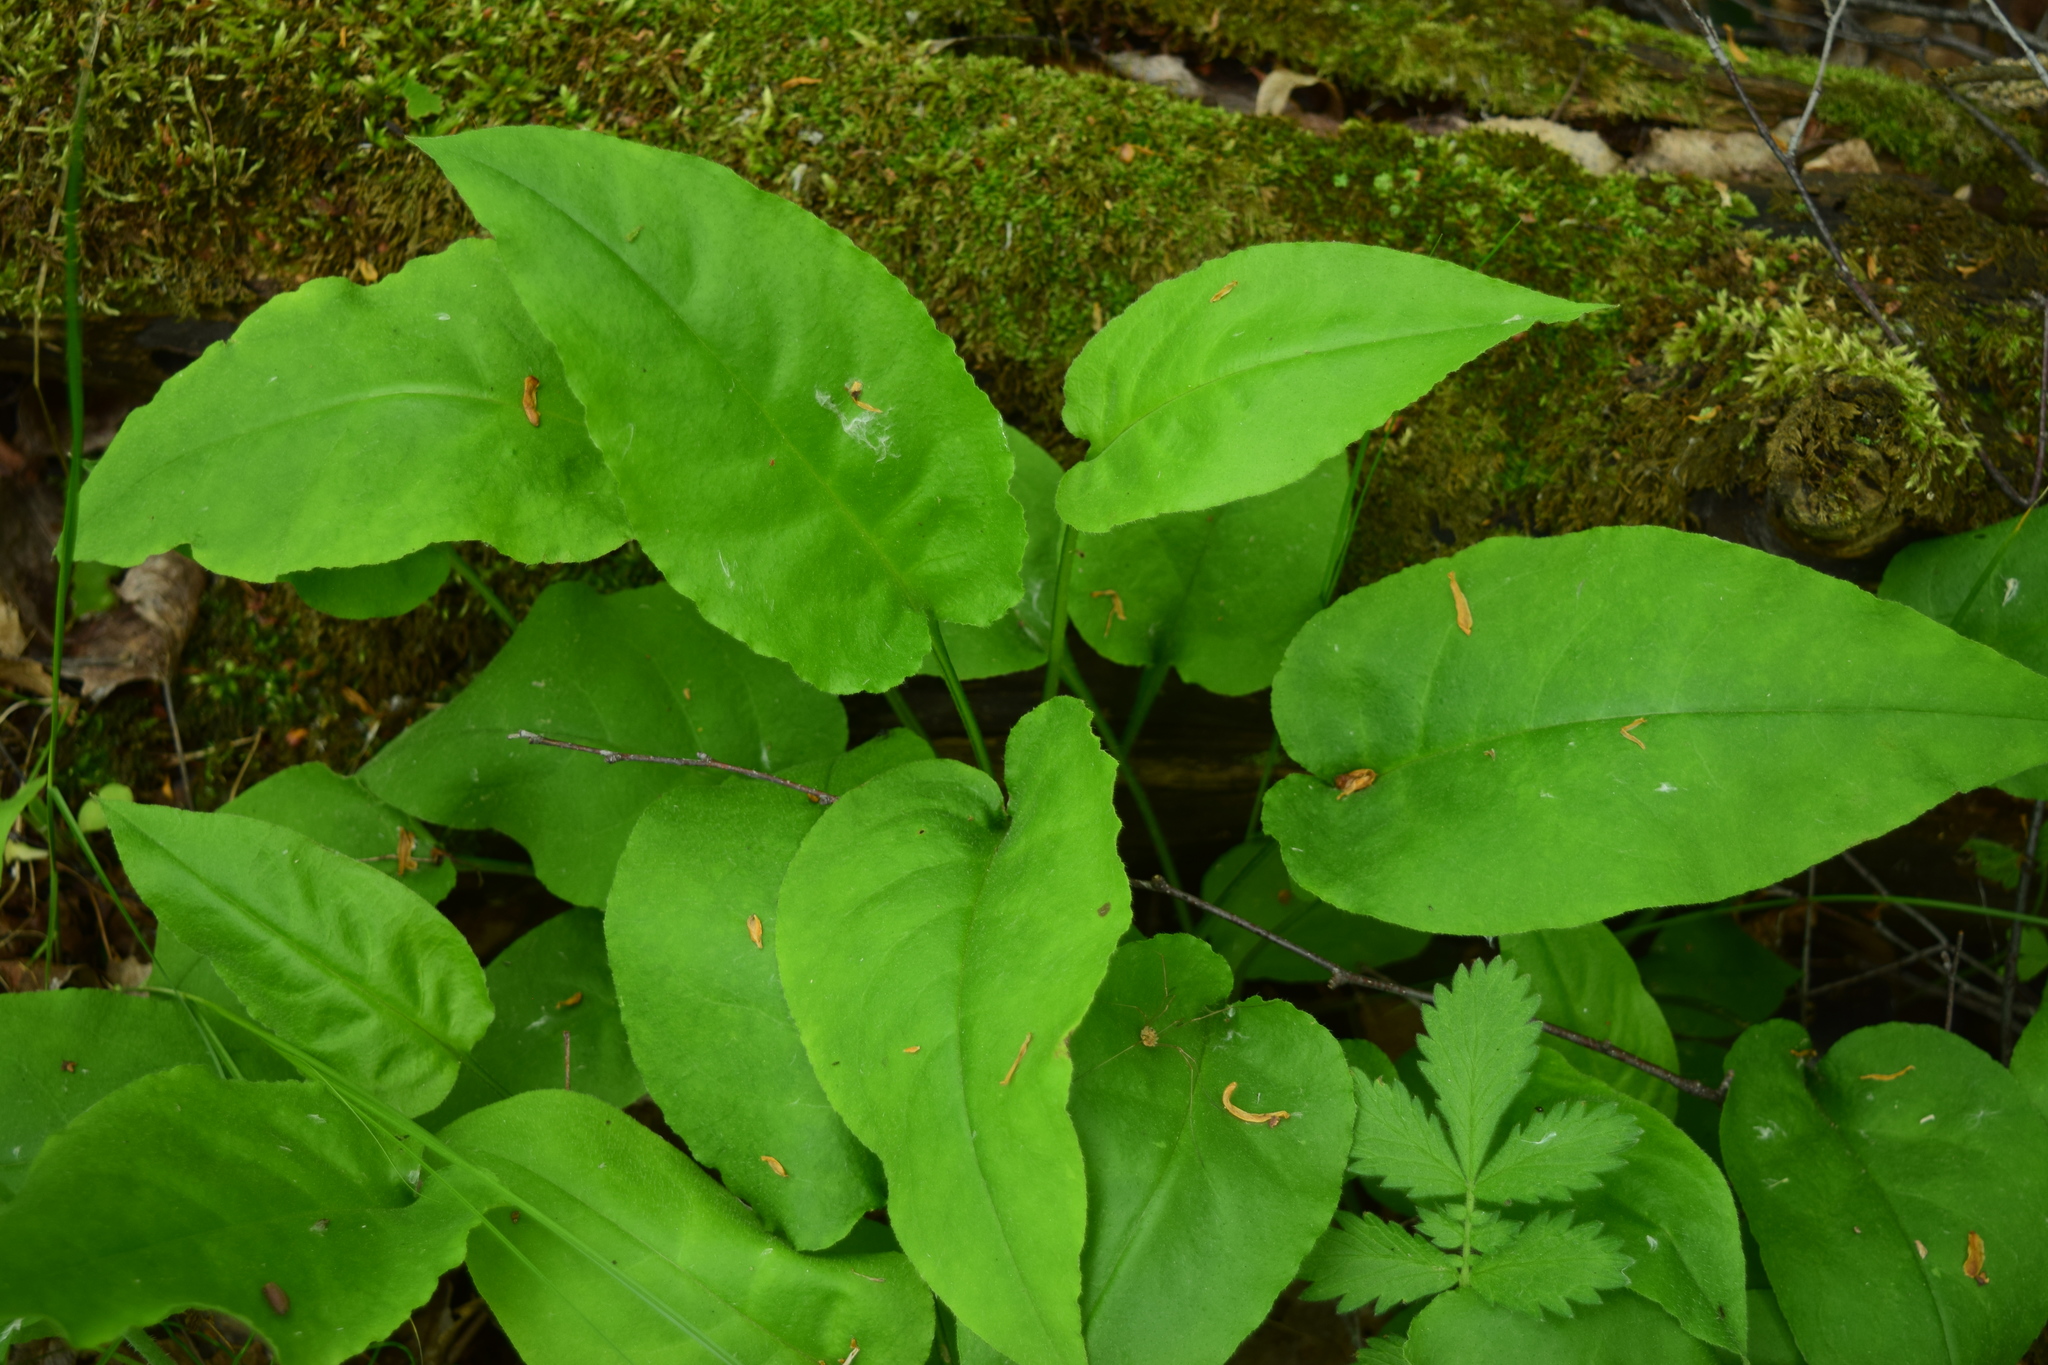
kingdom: Plantae
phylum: Tracheophyta
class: Magnoliopsida
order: Boraginales
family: Boraginaceae
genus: Pulmonaria
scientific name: Pulmonaria obscura
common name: Suffolk lungwort
